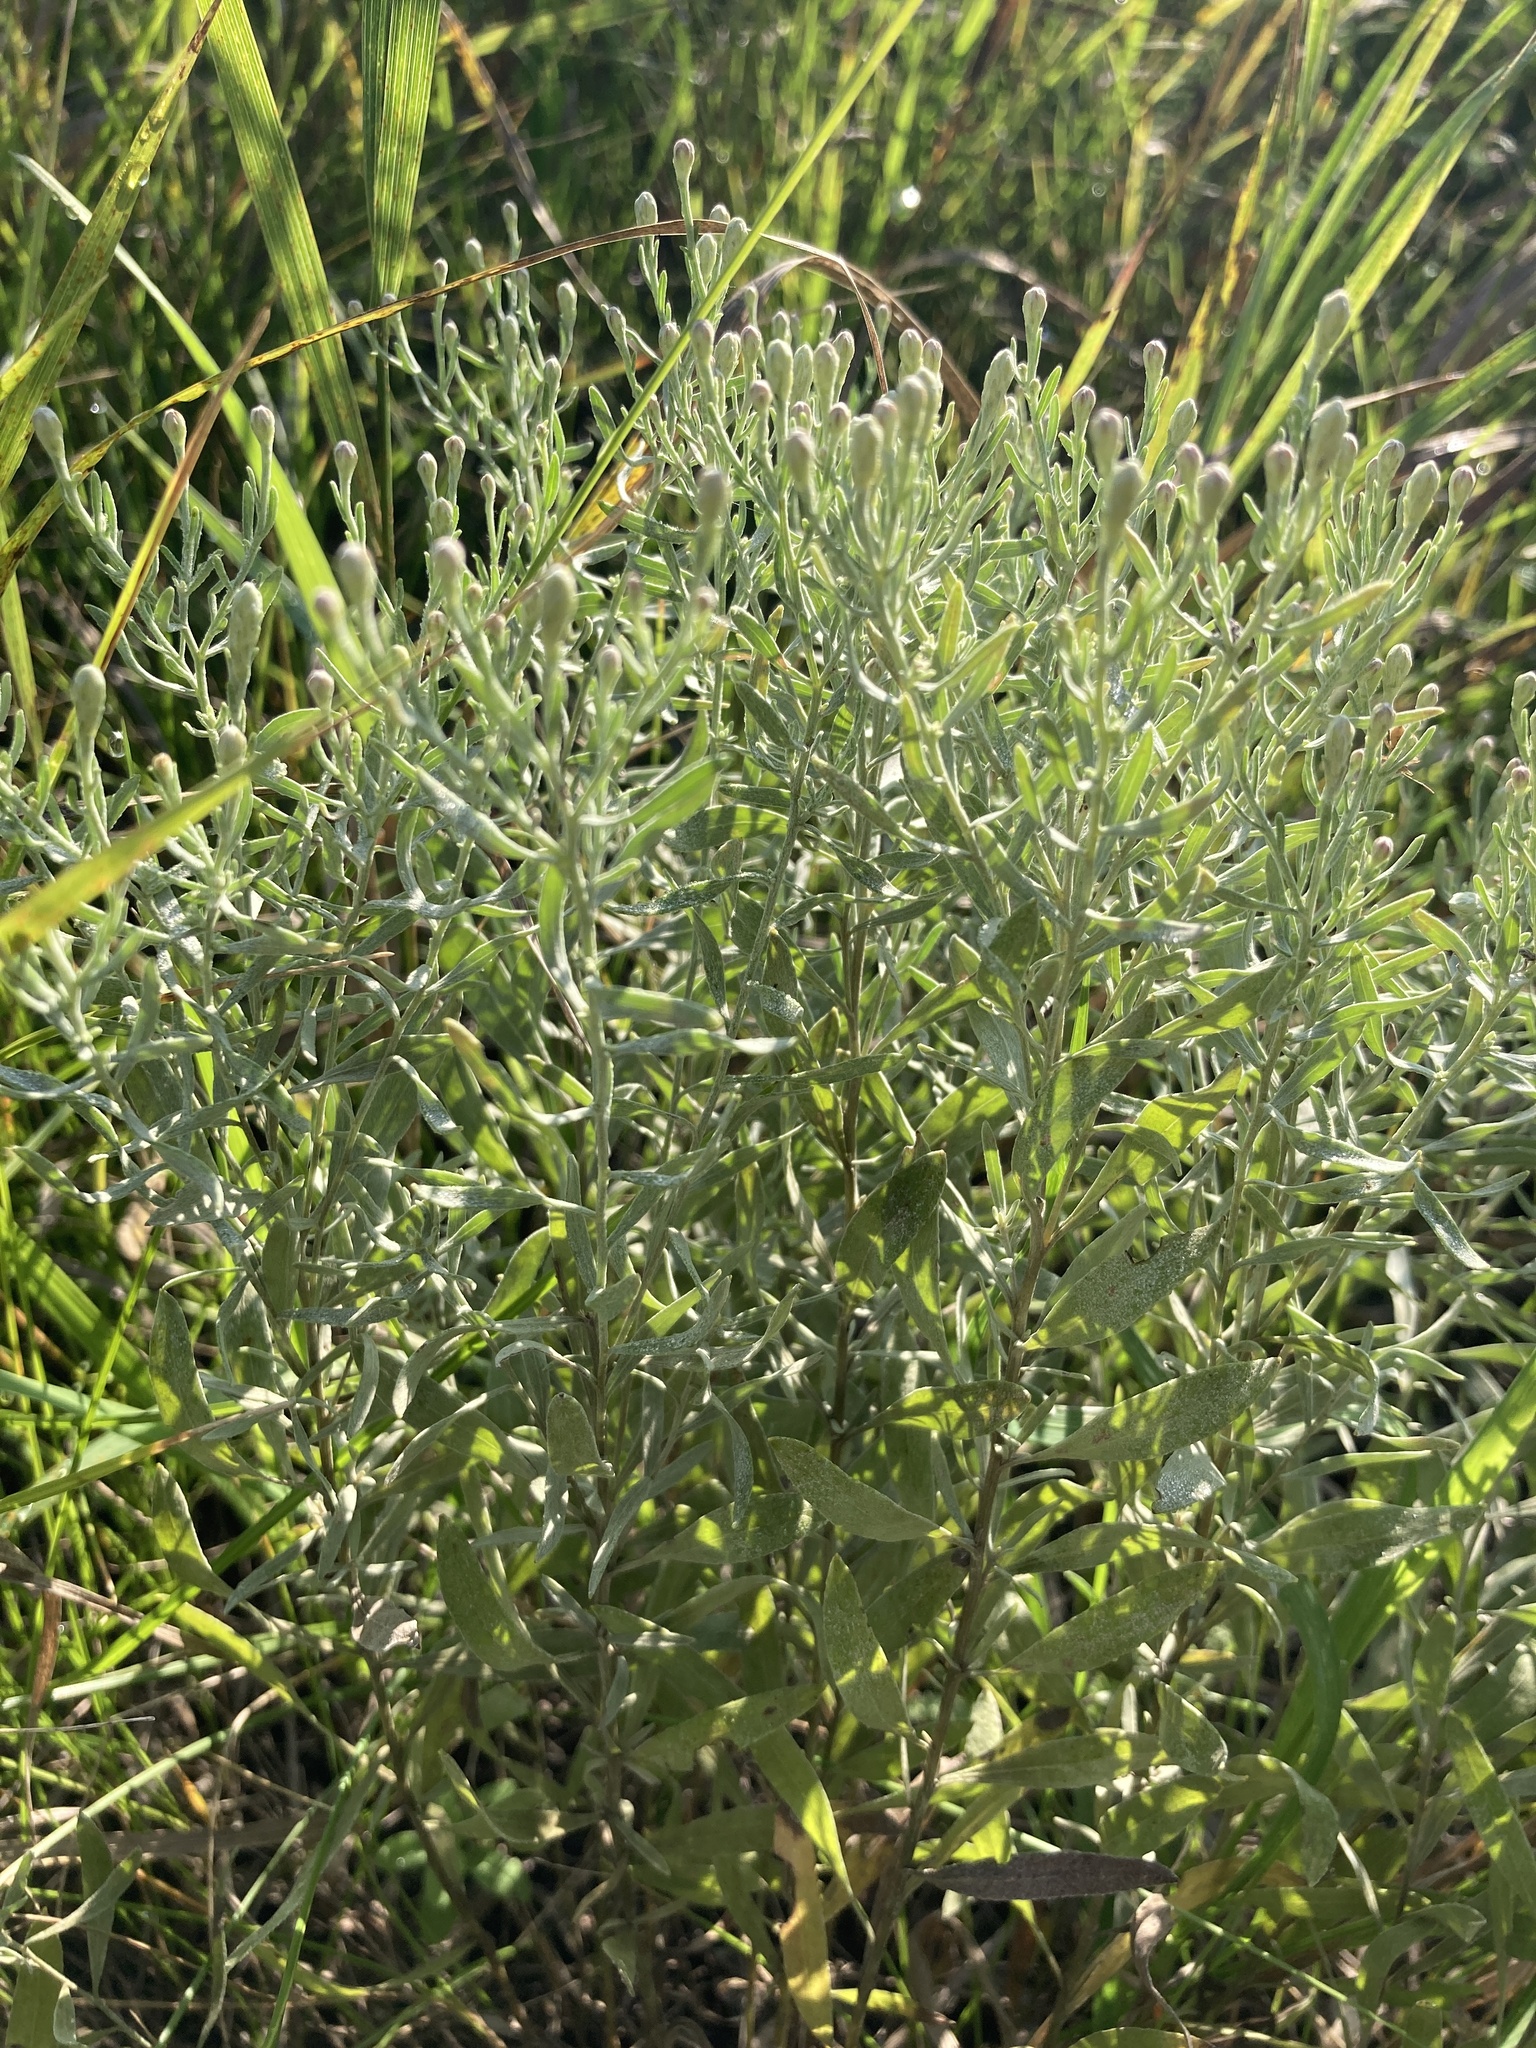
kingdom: Plantae
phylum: Tracheophyta
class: Magnoliopsida
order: Asterales
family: Asteraceae
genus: Galatella
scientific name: Galatella villosa
